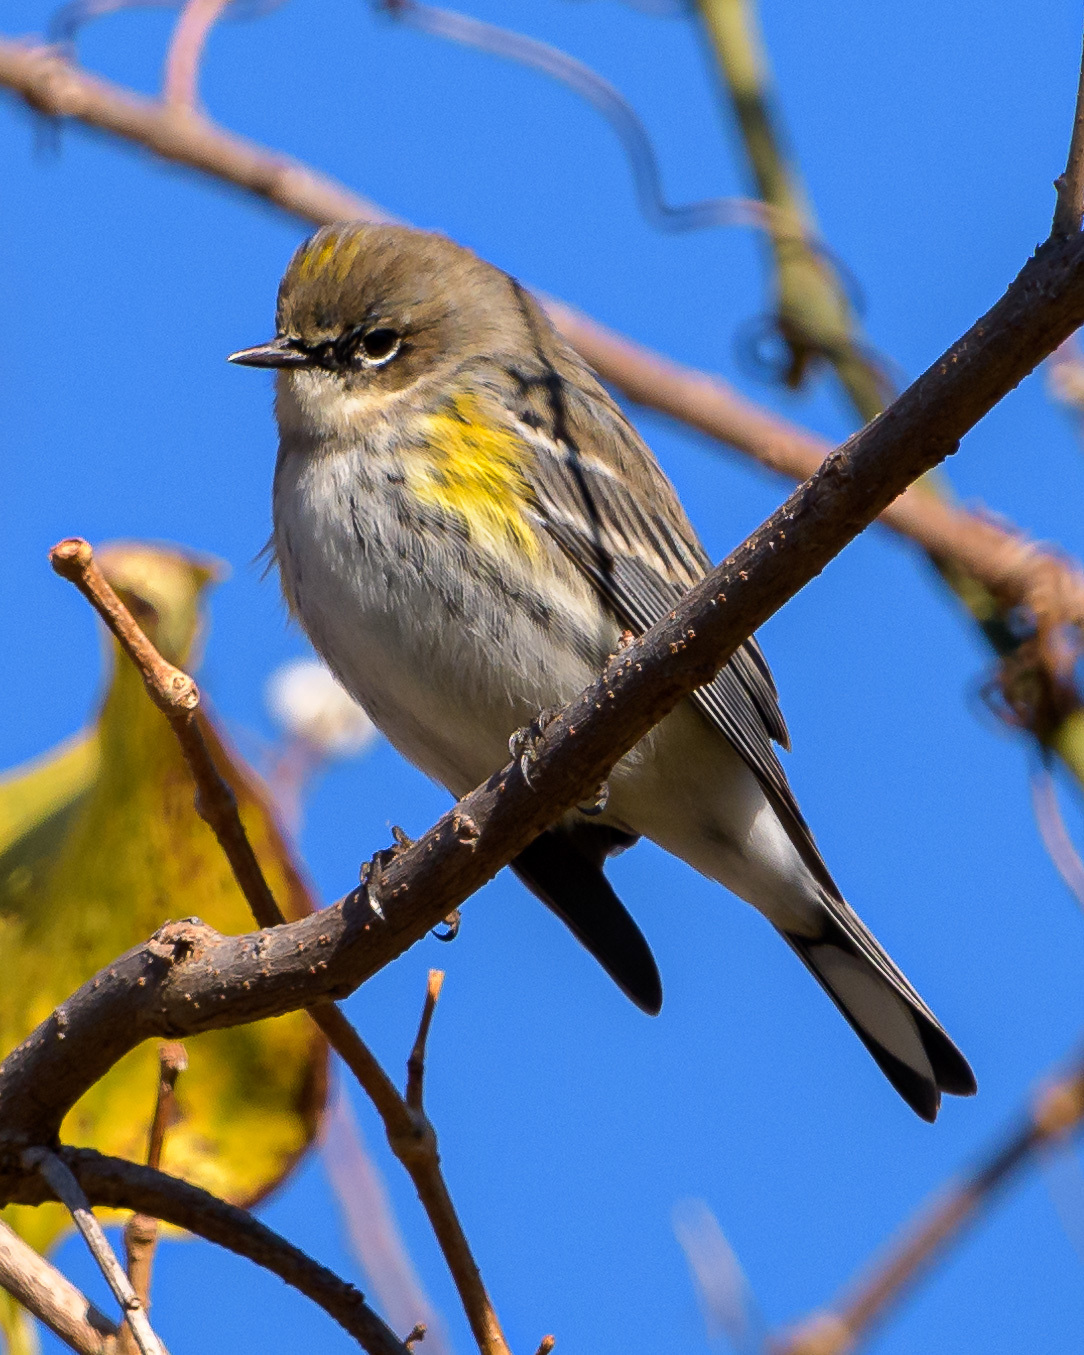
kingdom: Animalia
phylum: Chordata
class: Aves
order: Passeriformes
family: Parulidae
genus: Setophaga
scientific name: Setophaga coronata
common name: Myrtle warbler
